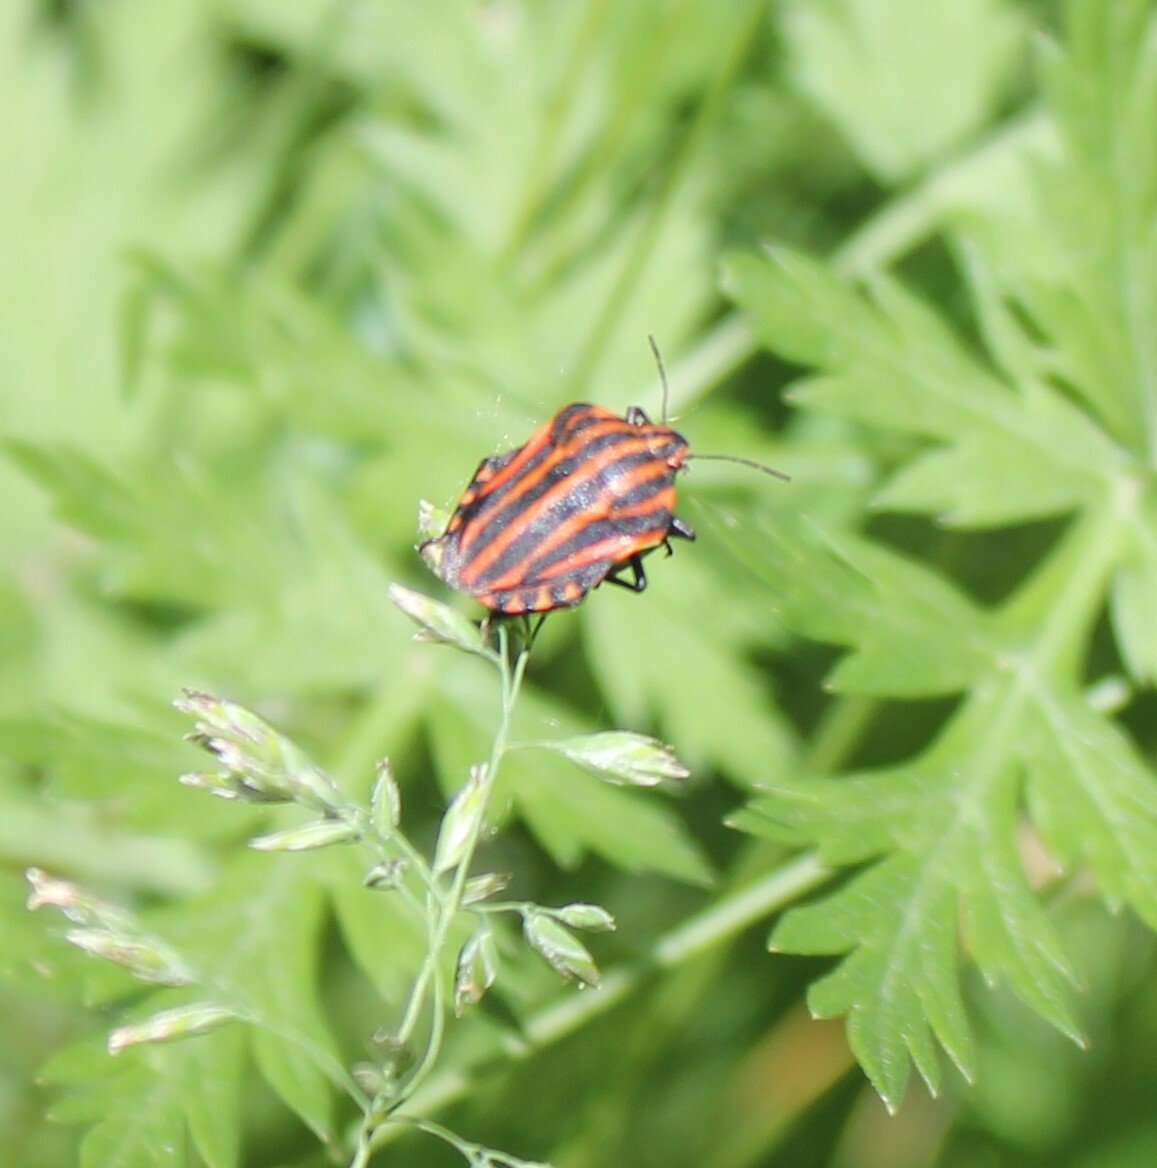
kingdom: Animalia
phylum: Arthropoda
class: Insecta
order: Hemiptera
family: Pentatomidae
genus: Graphosoma
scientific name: Graphosoma italicum
